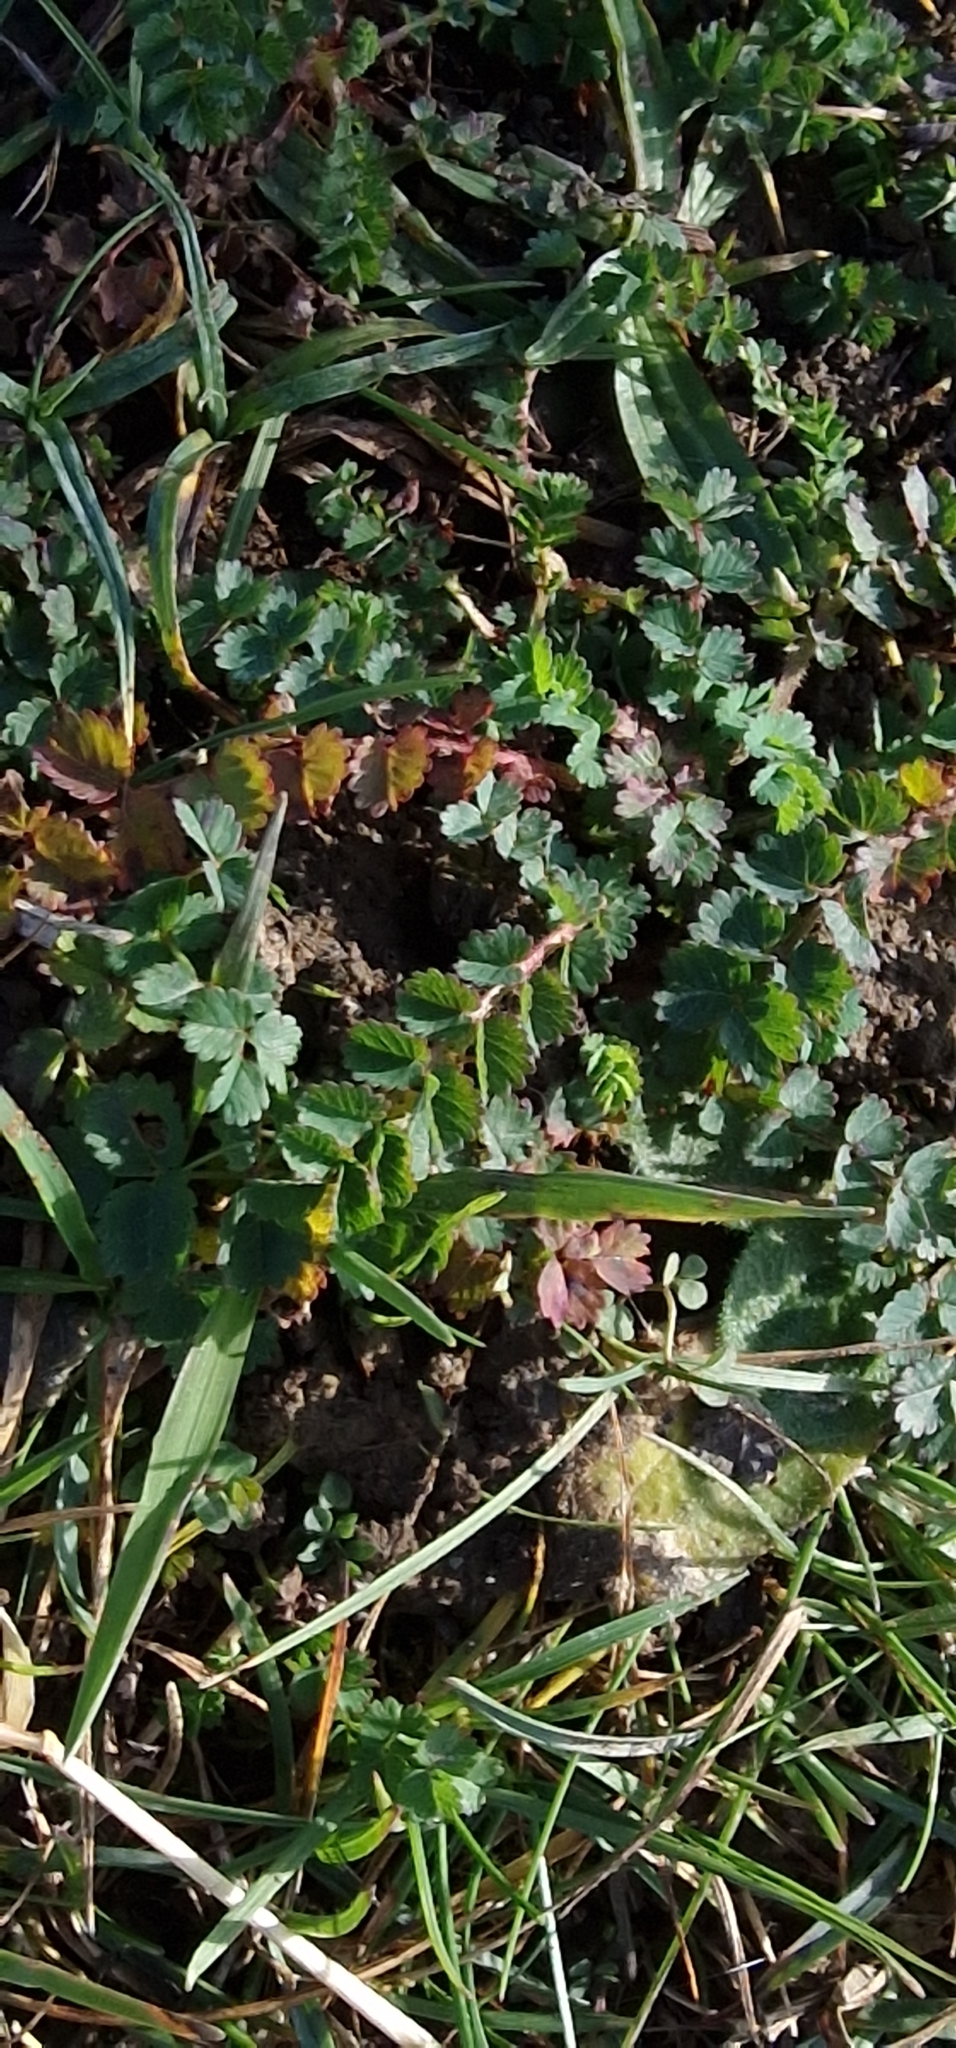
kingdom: Plantae
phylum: Tracheophyta
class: Magnoliopsida
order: Rosales
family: Rosaceae
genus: Poterium
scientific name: Poterium sanguisorba
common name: Salad burnet
